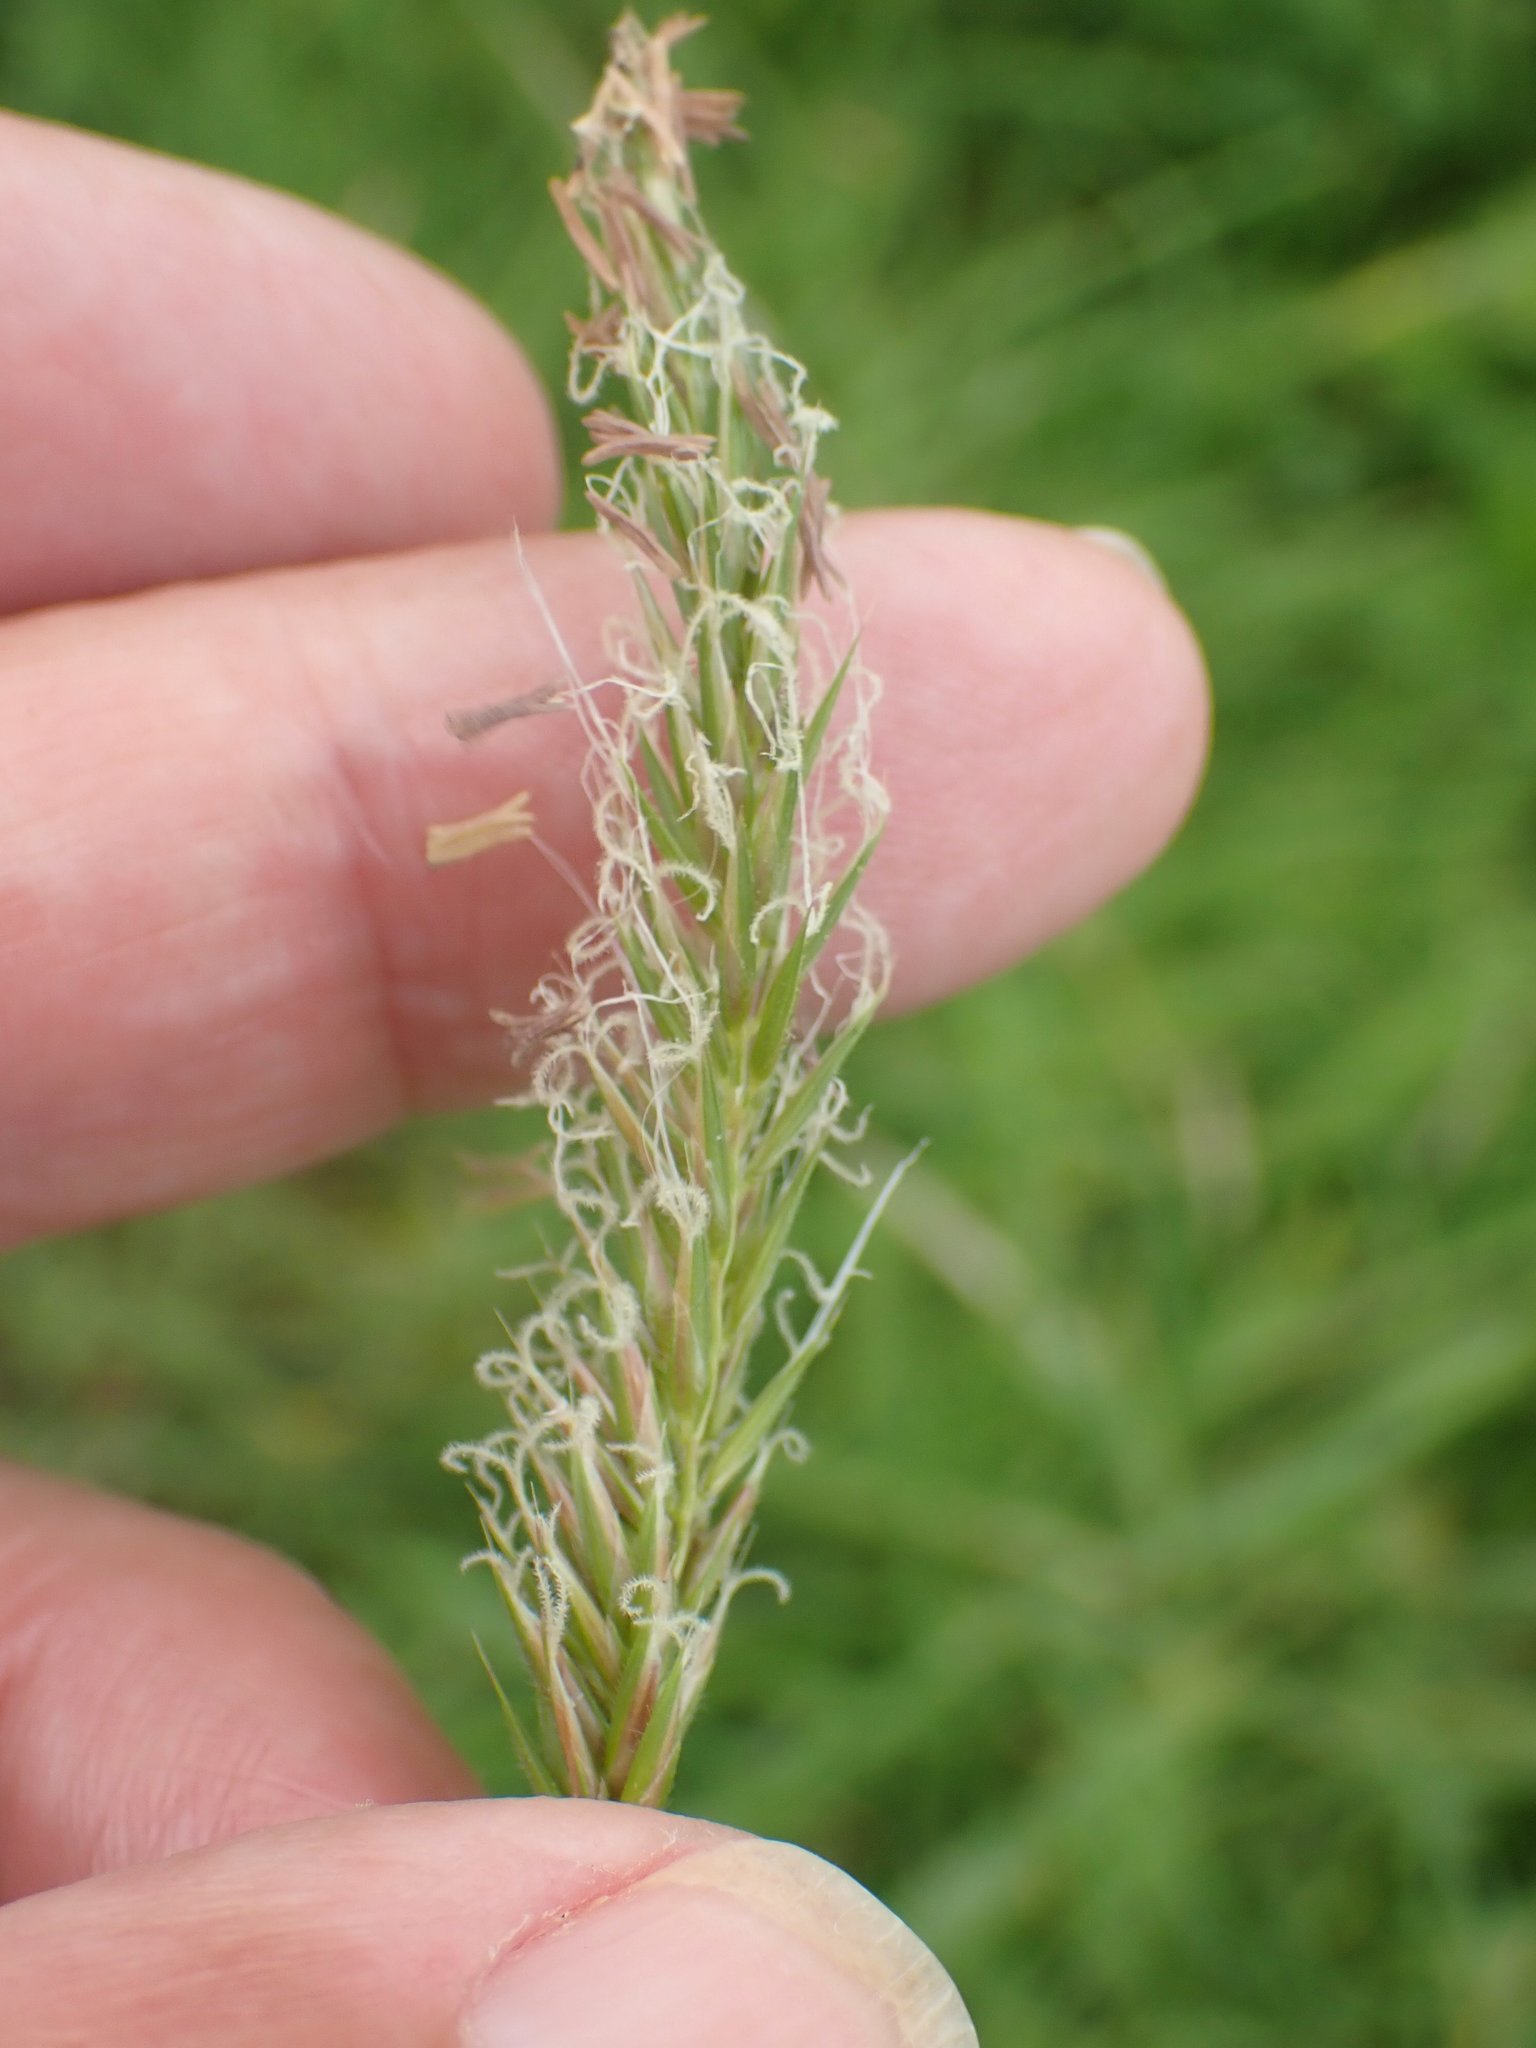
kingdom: Plantae
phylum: Tracheophyta
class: Liliopsida
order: Poales
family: Poaceae
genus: Anthoxanthum
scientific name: Anthoxanthum odoratum
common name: Sweet vernalgrass
